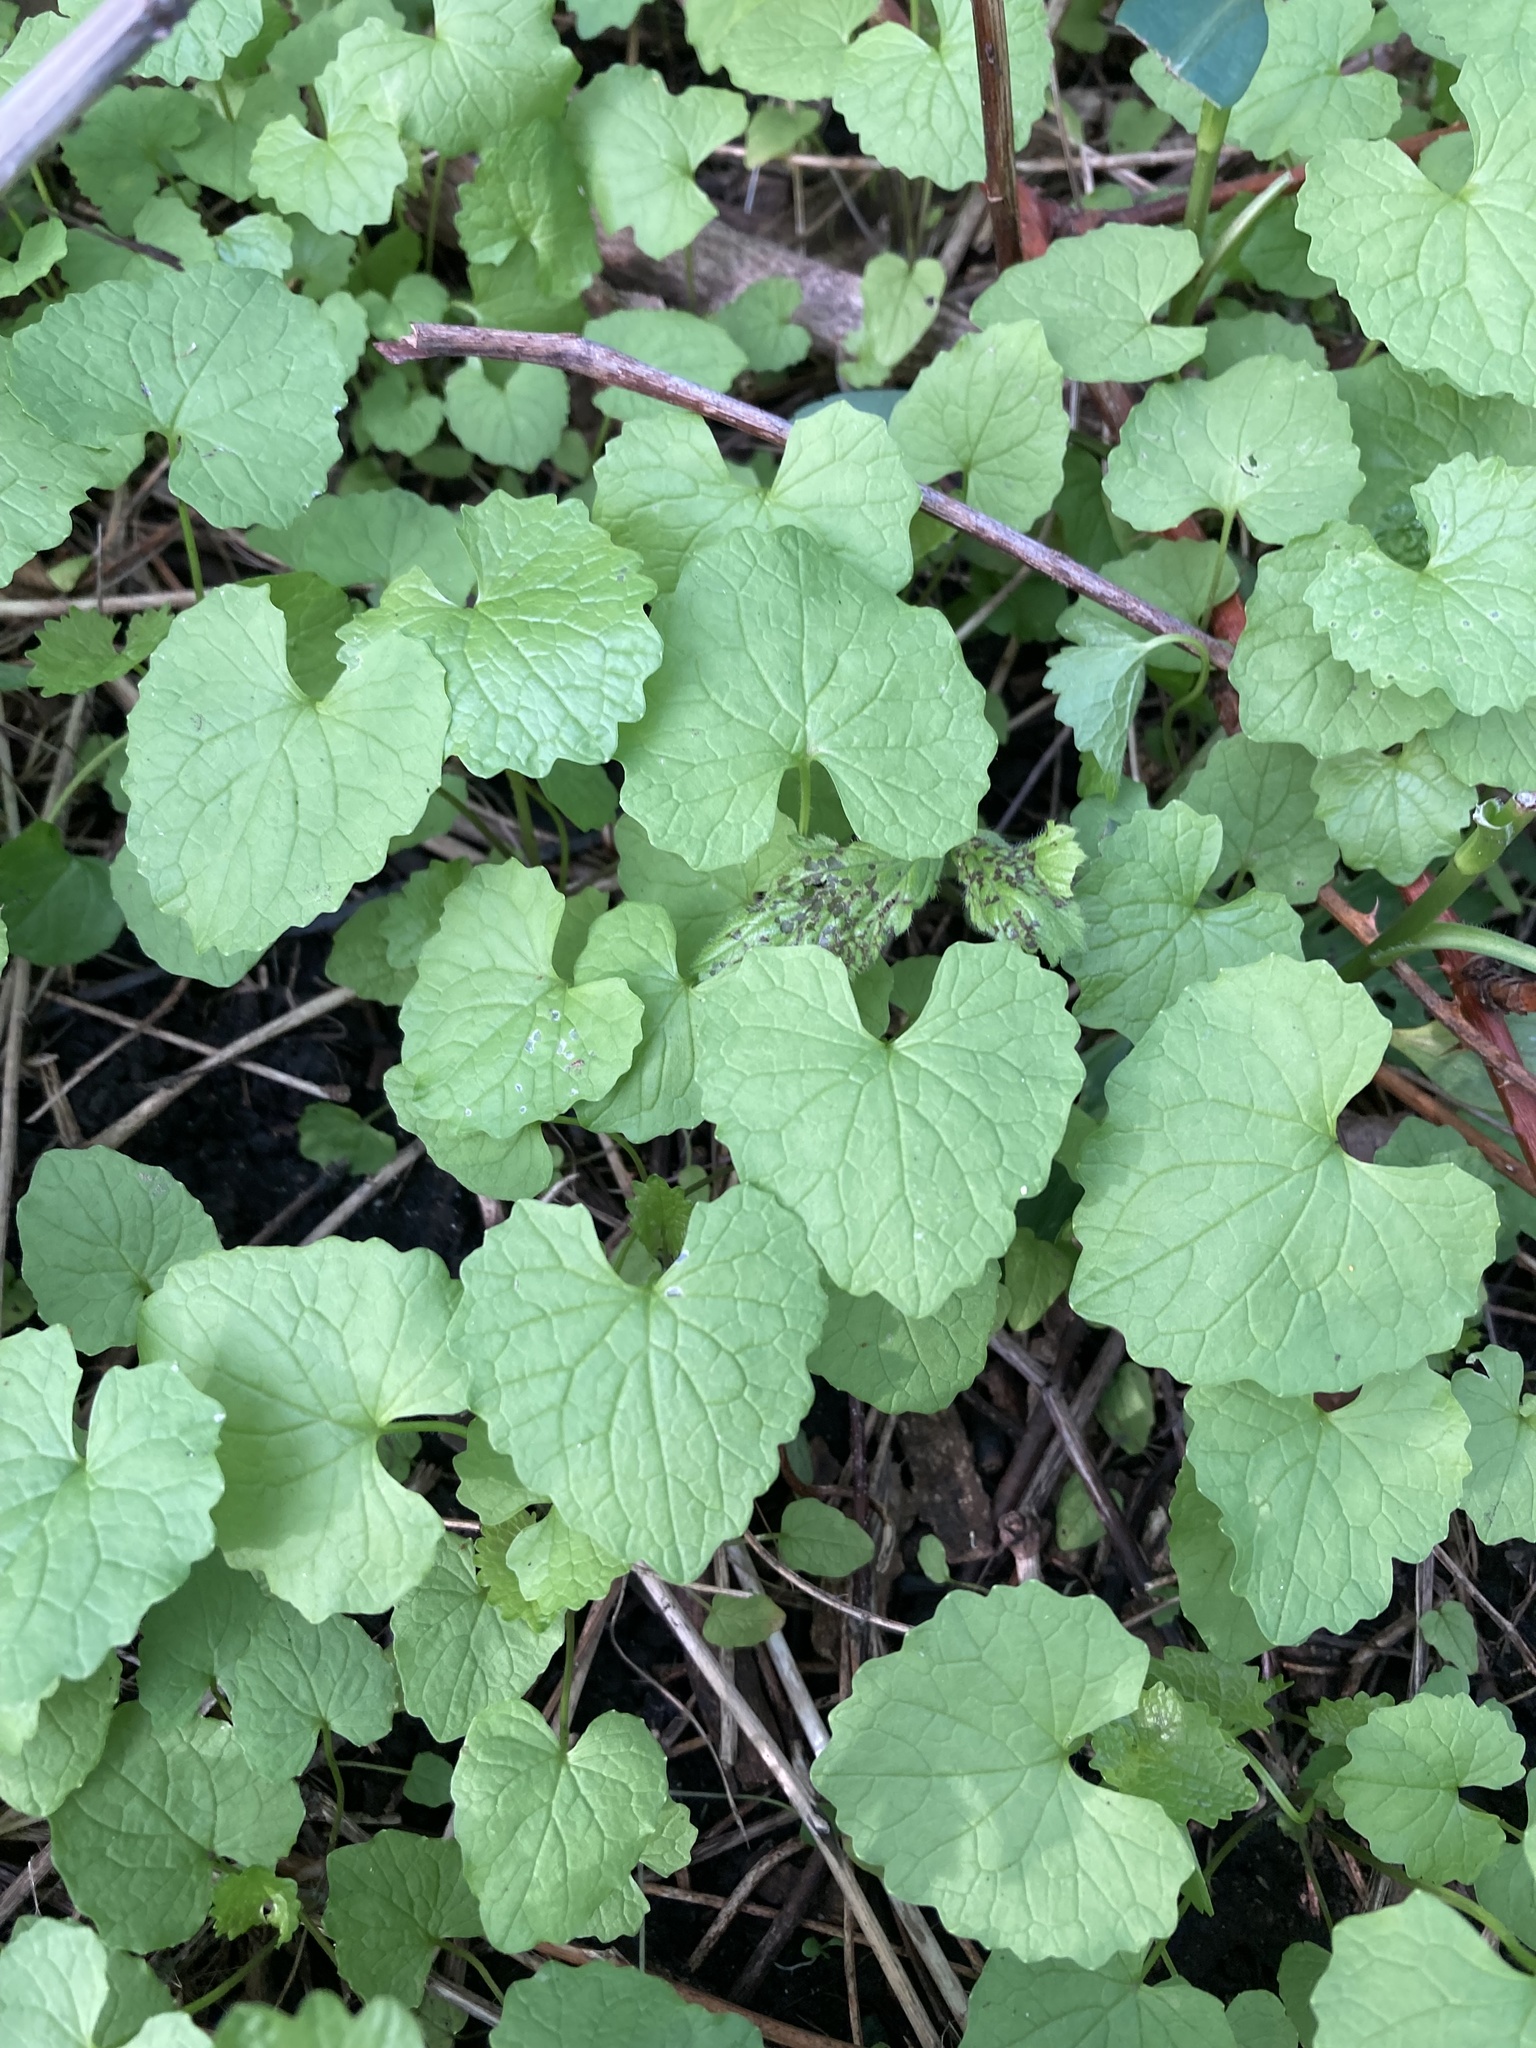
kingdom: Plantae
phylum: Tracheophyta
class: Magnoliopsida
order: Brassicales
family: Brassicaceae
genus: Alliaria
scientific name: Alliaria petiolata
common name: Garlic mustard
